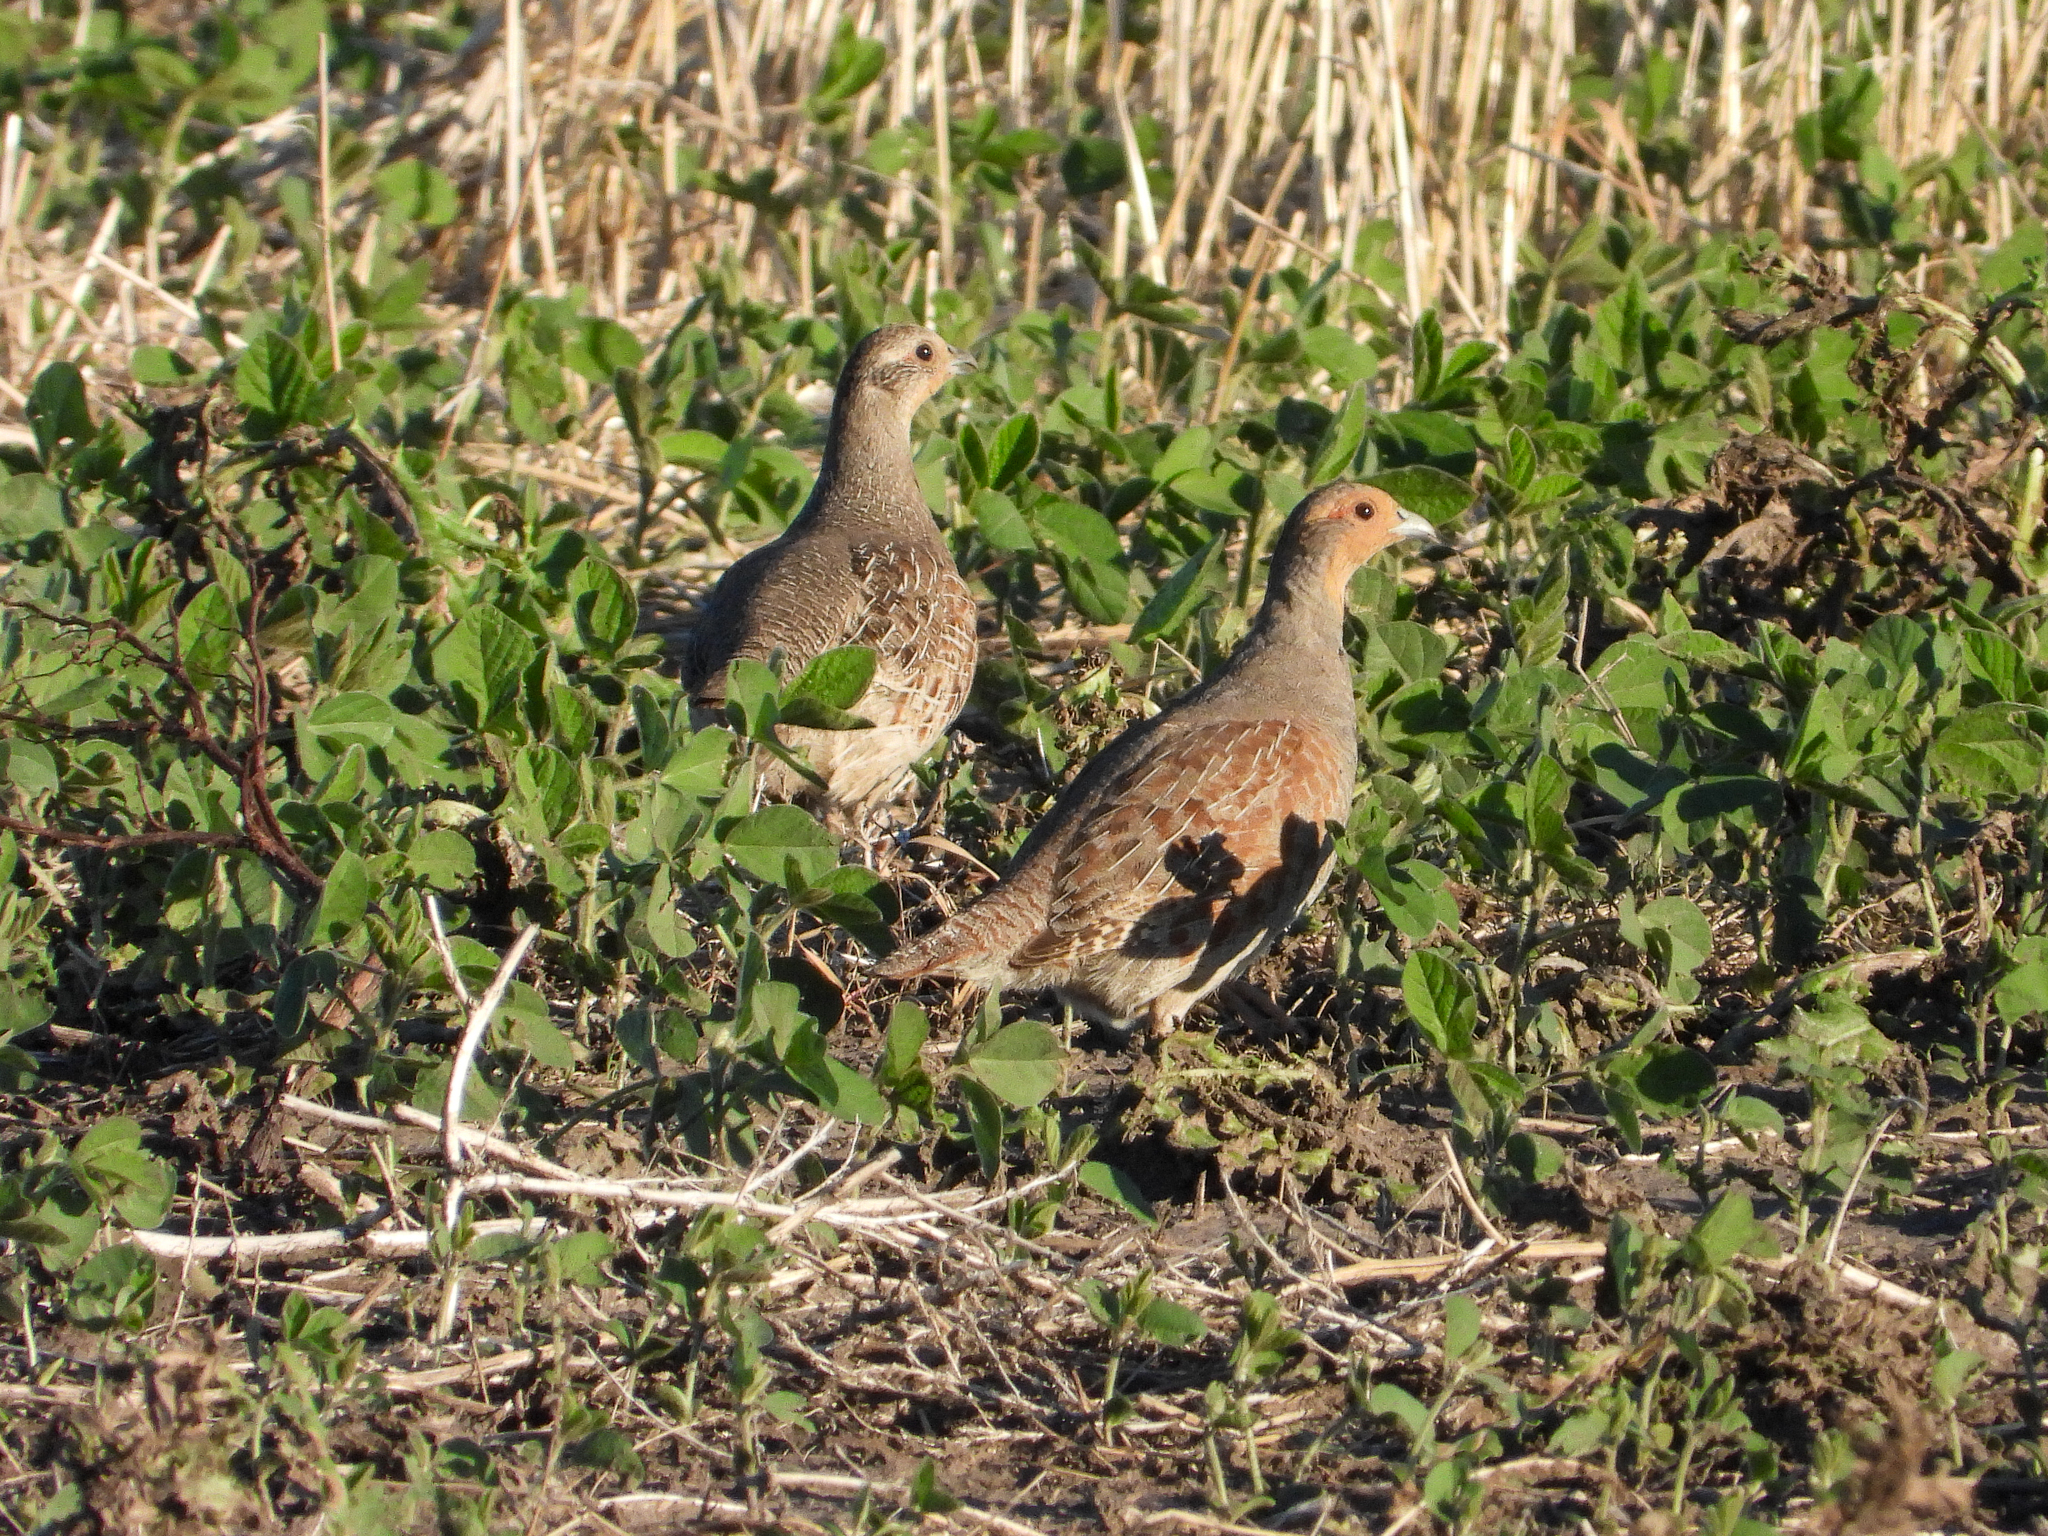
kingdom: Animalia
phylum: Chordata
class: Aves
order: Galliformes
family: Phasianidae
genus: Perdix
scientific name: Perdix perdix
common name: Grey partridge
